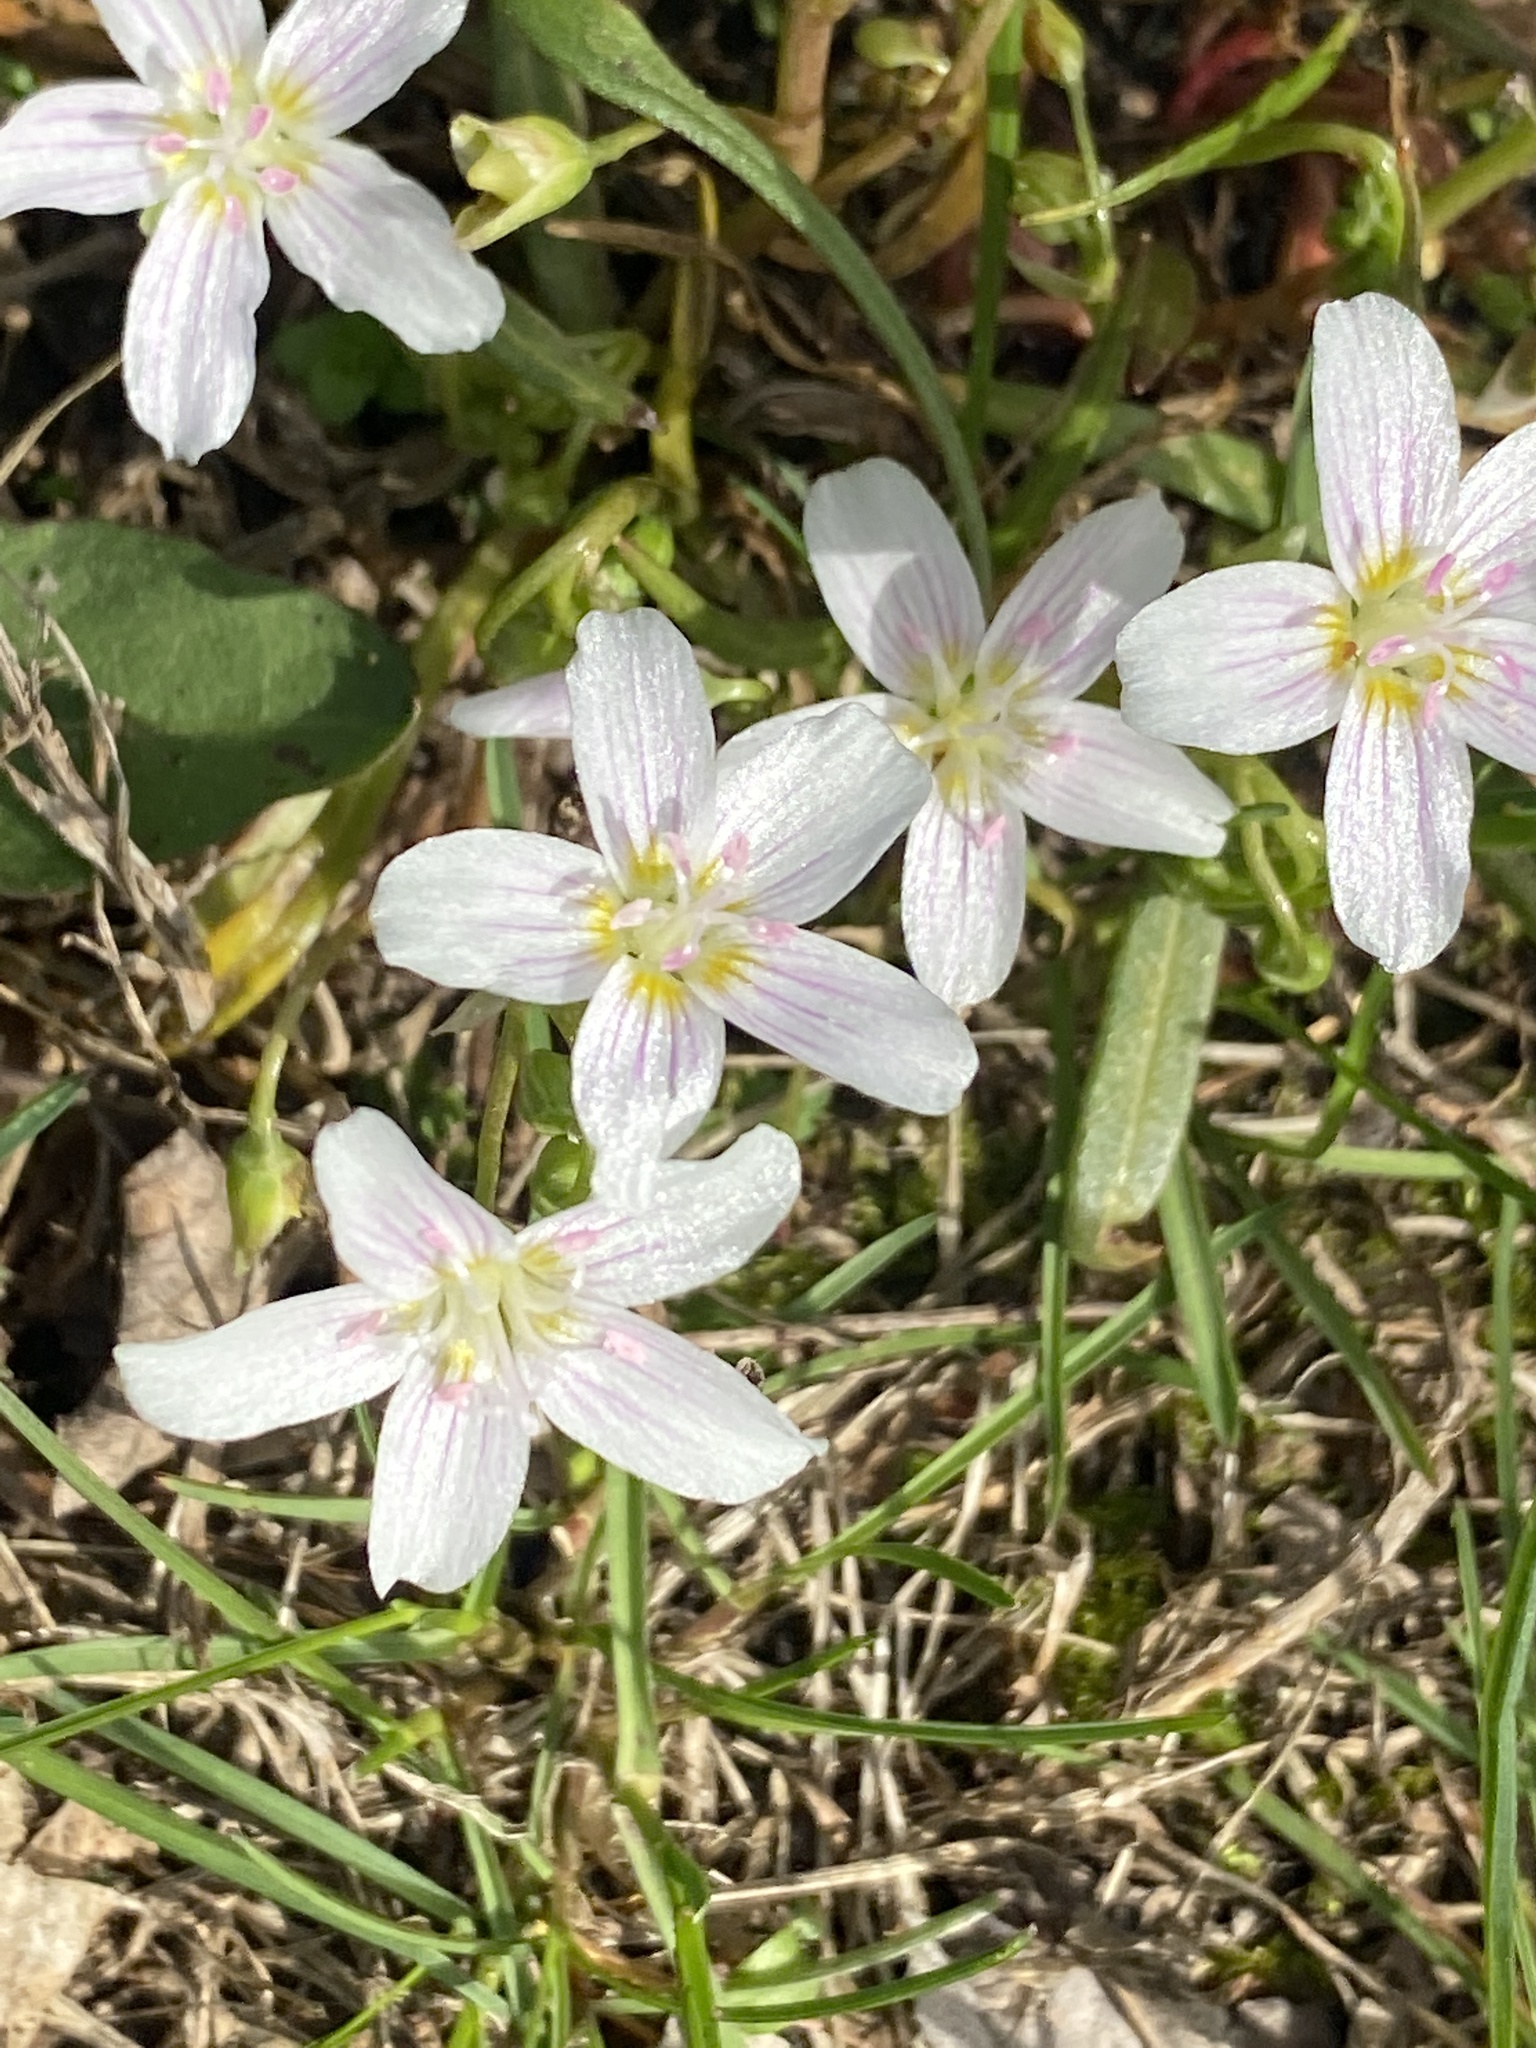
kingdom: Plantae
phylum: Tracheophyta
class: Magnoliopsida
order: Caryophyllales
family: Montiaceae
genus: Claytonia
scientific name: Claytonia virginica
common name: Virginia springbeauty
